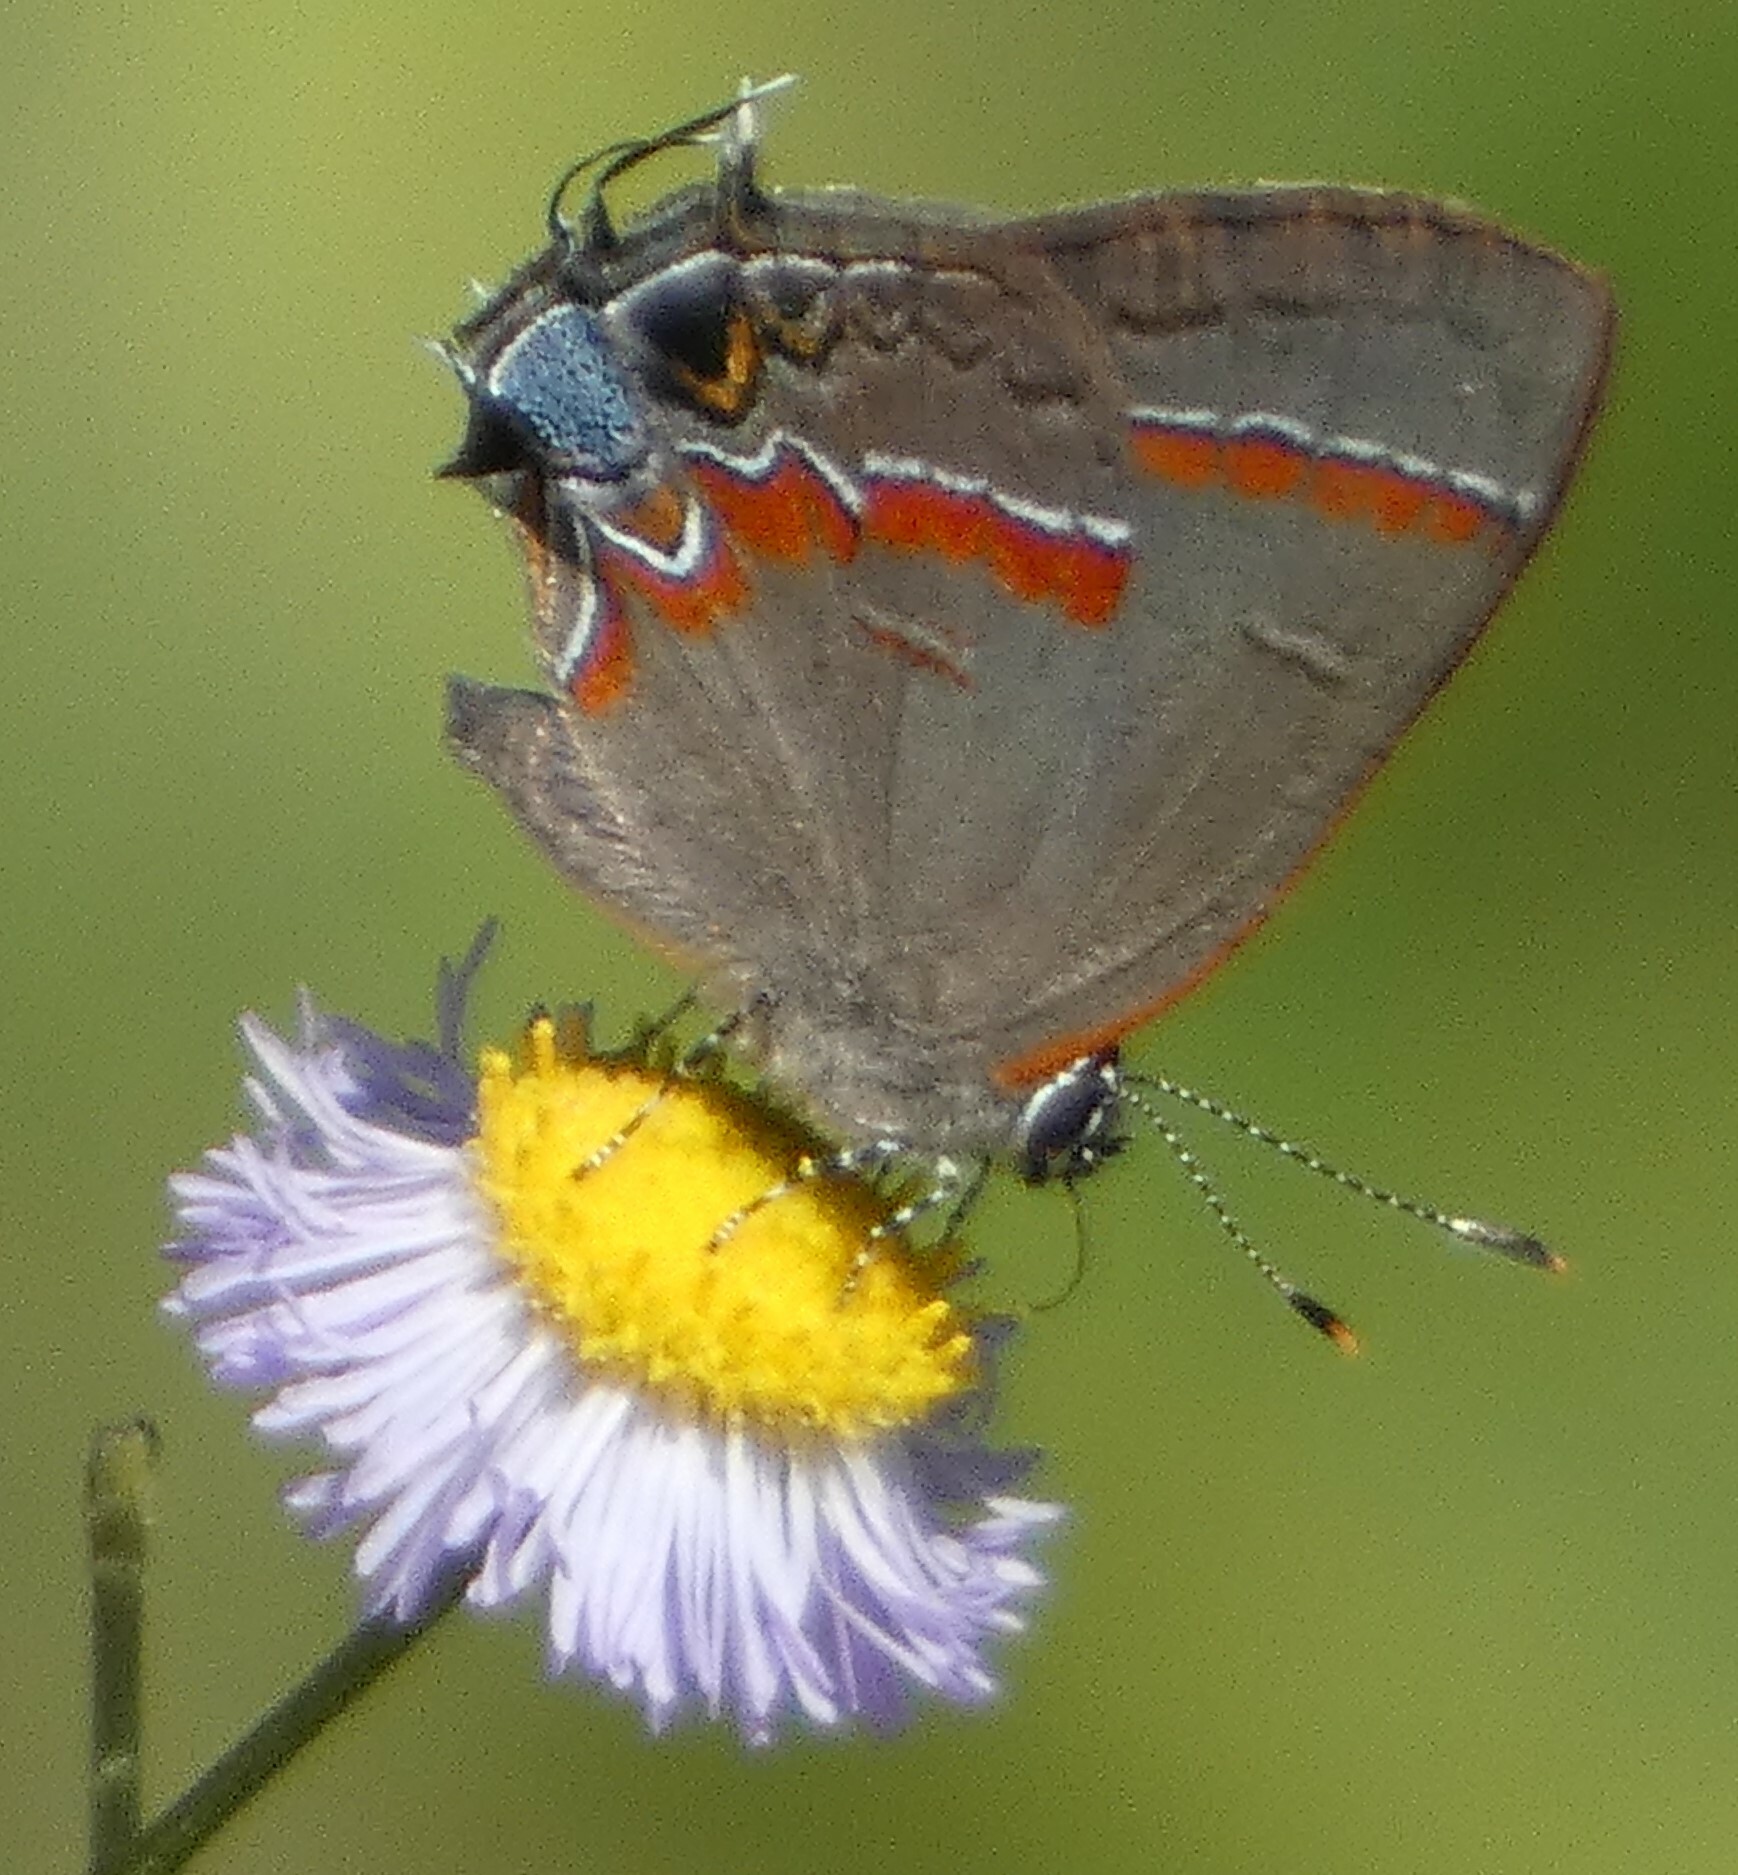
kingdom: Animalia
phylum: Arthropoda
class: Insecta
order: Lepidoptera
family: Lycaenidae
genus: Calycopis
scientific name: Calycopis cecrops
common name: Red-banded hairstreak
